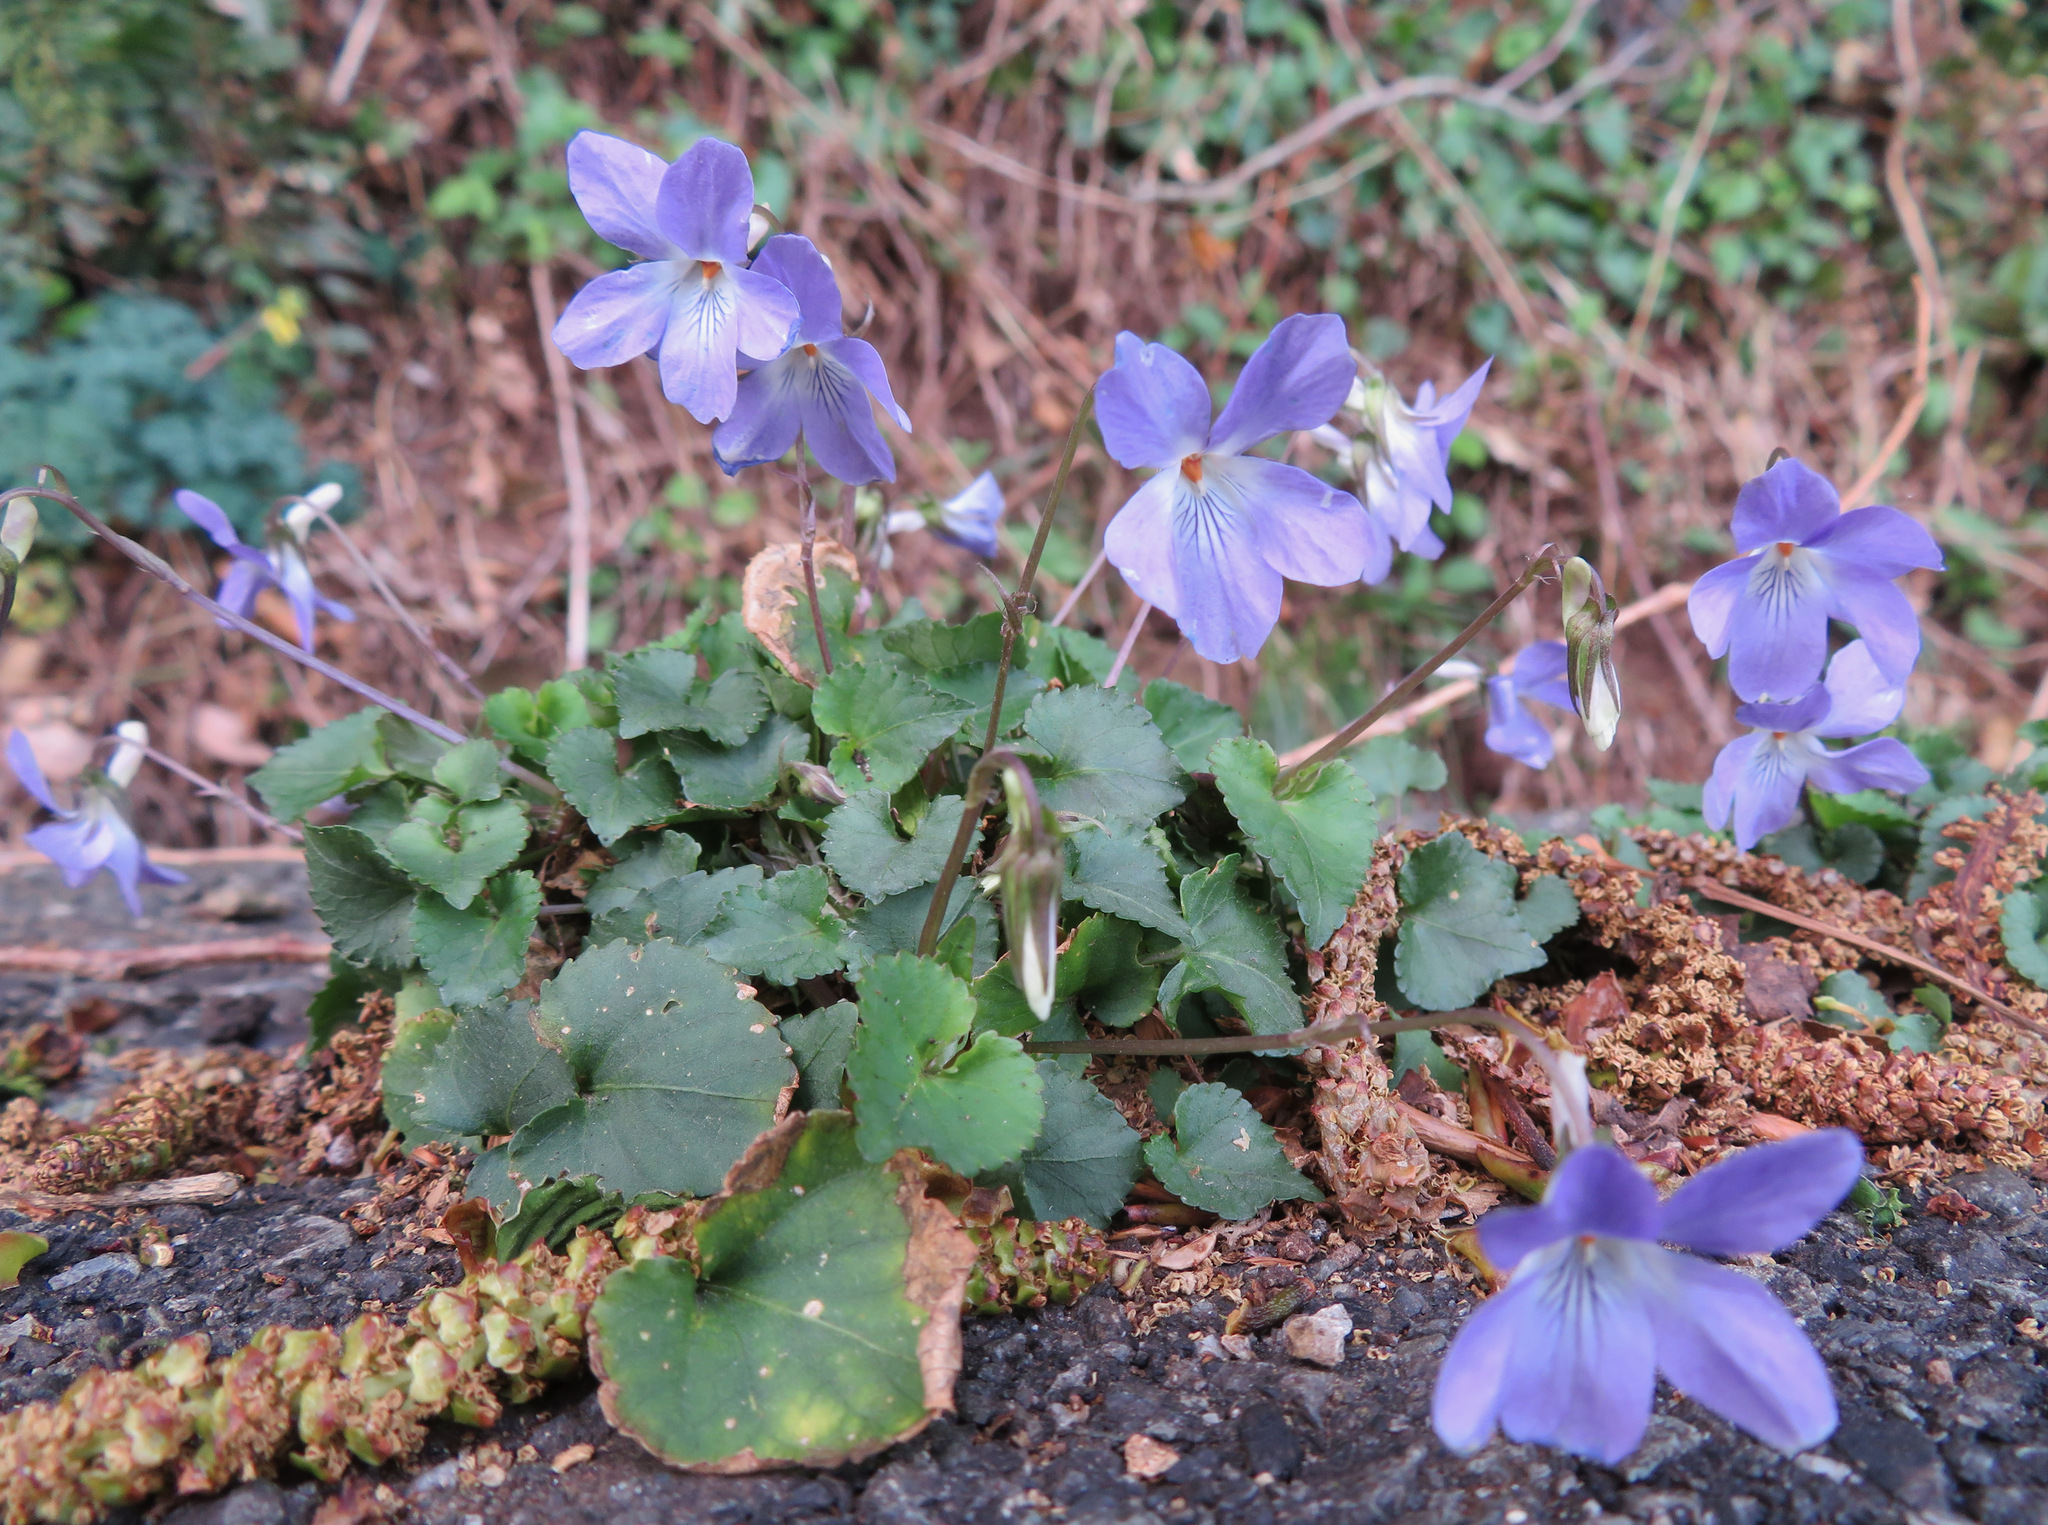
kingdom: Plantae
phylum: Tracheophyta
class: Magnoliopsida
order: Malpighiales
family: Violaceae
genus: Viola
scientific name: Viola grypoceras
